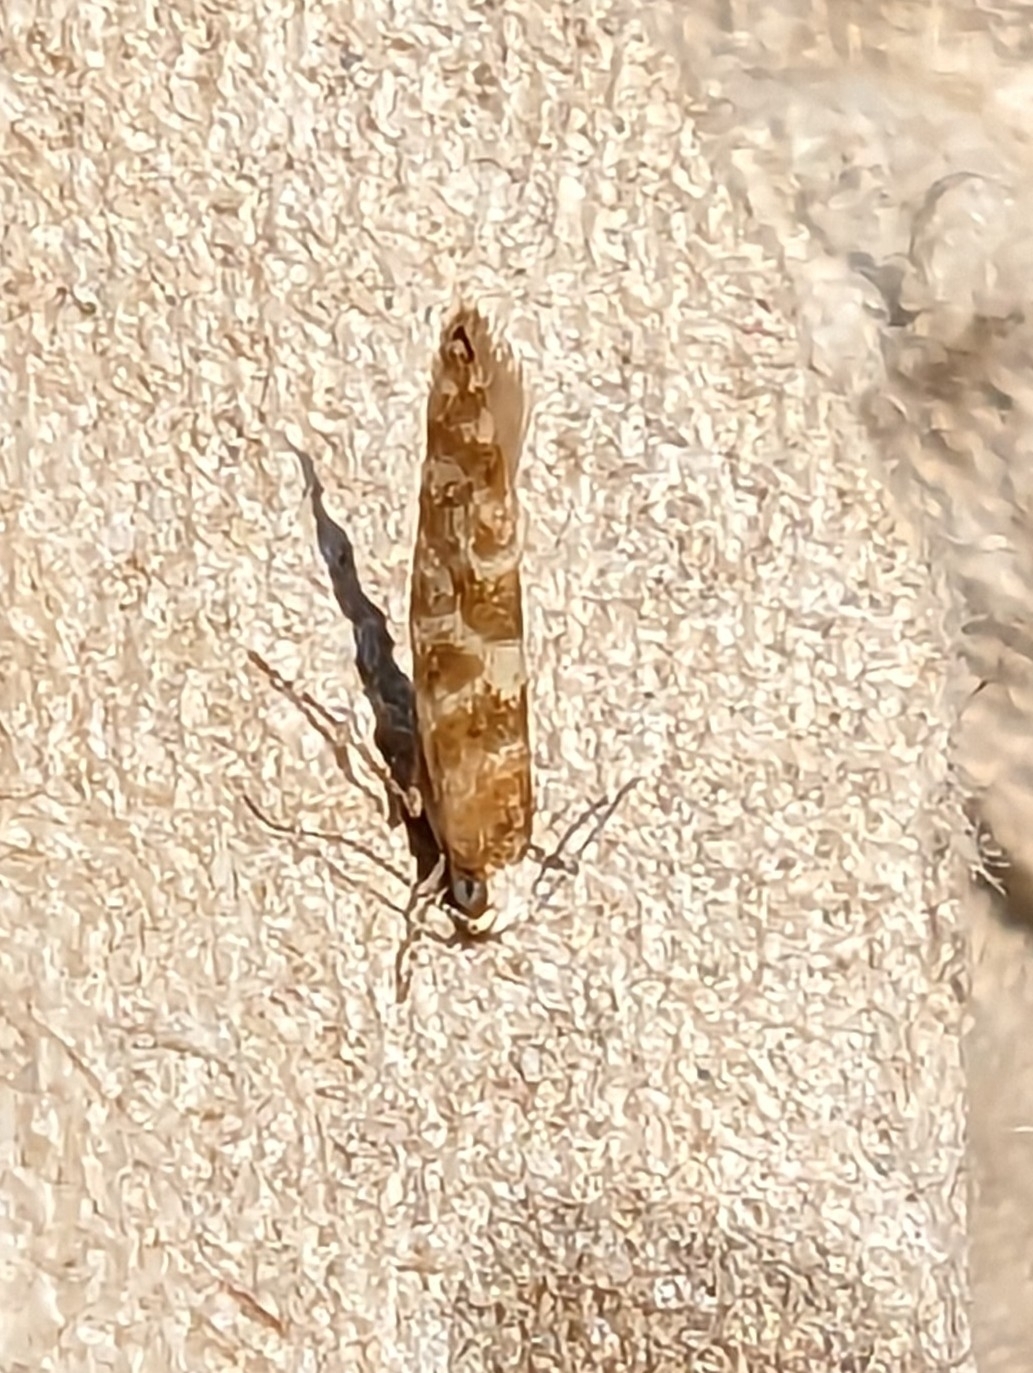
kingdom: Animalia
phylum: Arthropoda
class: Insecta
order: Lepidoptera
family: Argyresthiidae
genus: Argyresthia
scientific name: Argyresthia goedartella
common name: Golden argent
